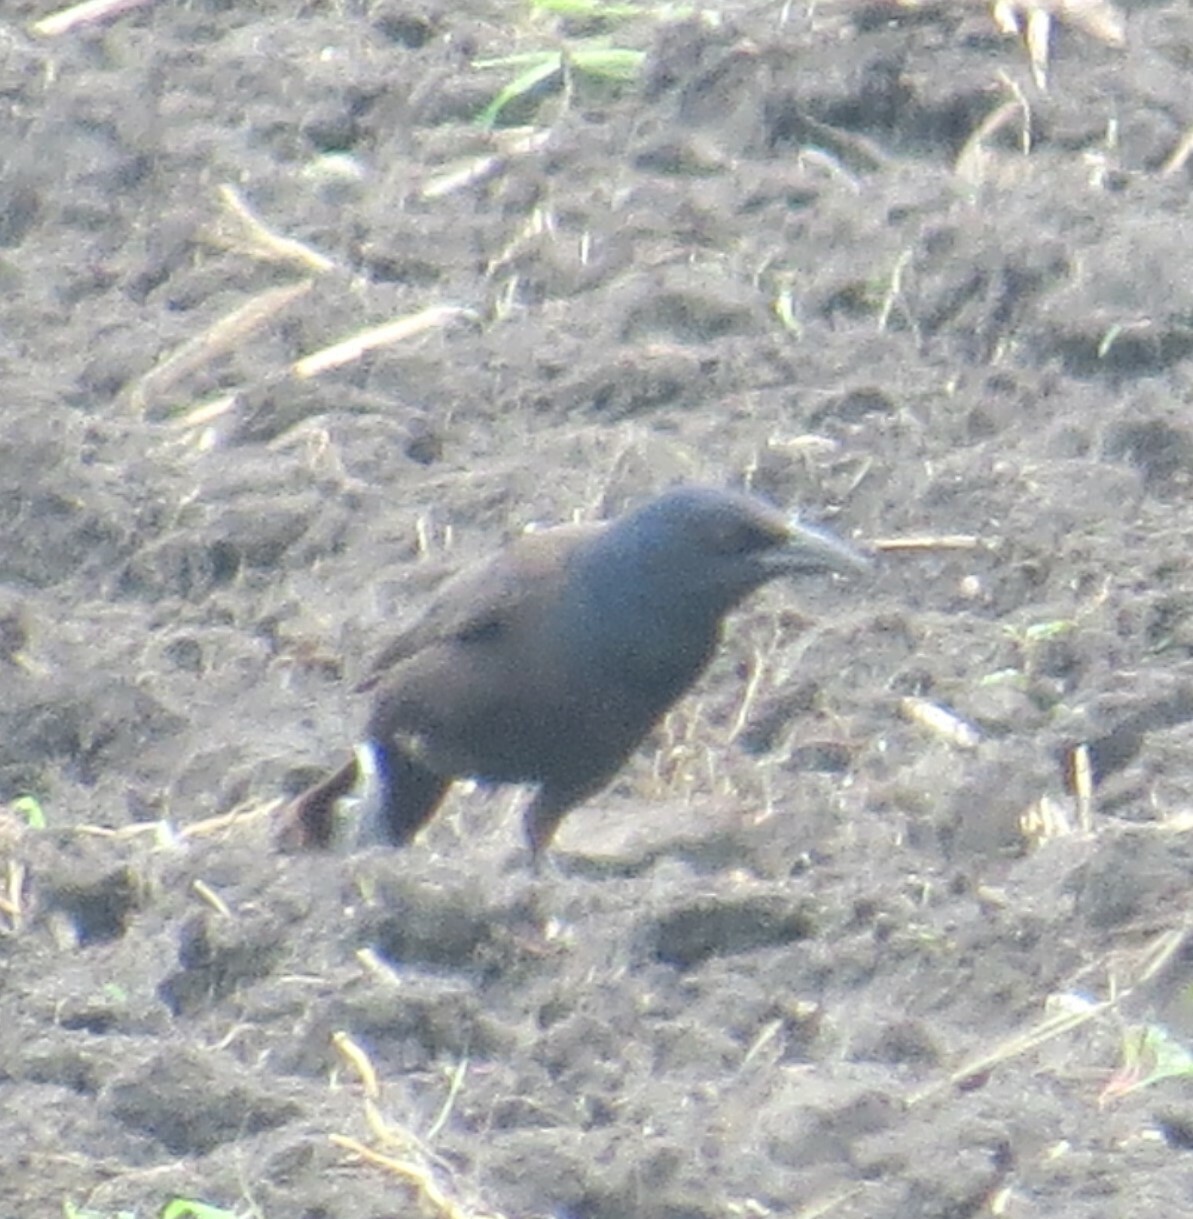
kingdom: Animalia
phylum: Chordata
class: Aves
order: Passeriformes
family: Icteridae
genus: Quiscalus
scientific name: Quiscalus quiscula
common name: Common grackle
